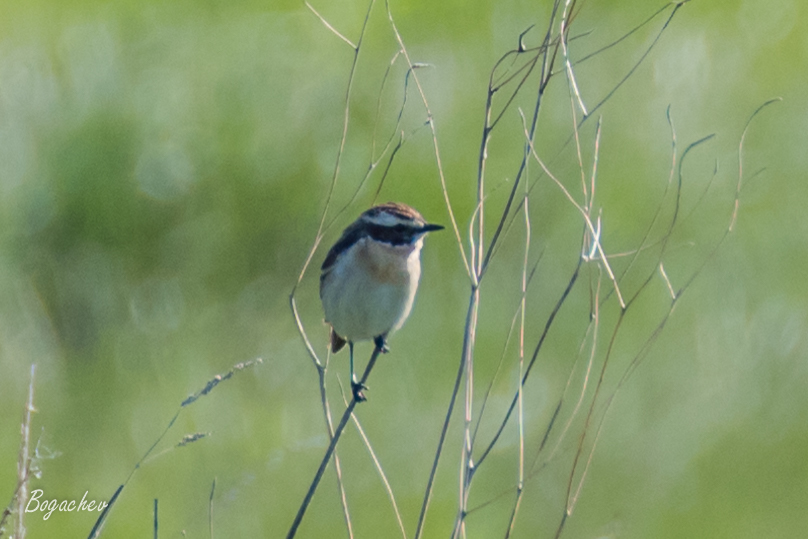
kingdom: Animalia
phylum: Chordata
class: Aves
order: Passeriformes
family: Muscicapidae
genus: Saxicola
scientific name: Saxicola rubetra
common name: Whinchat
